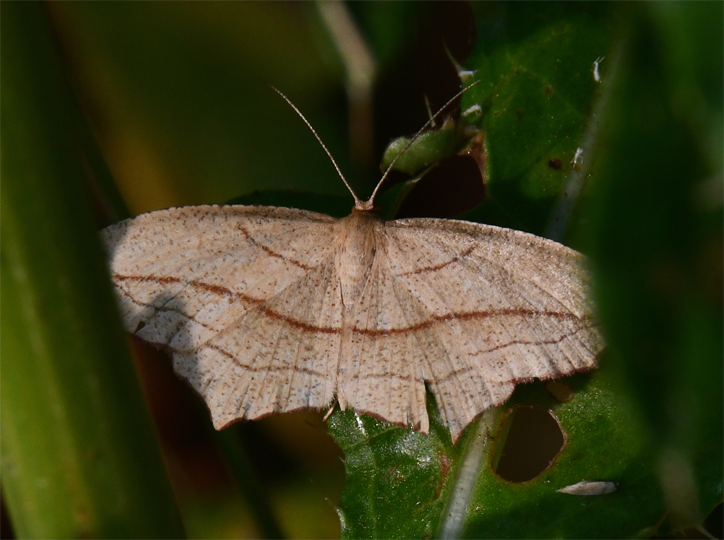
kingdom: Animalia
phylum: Arthropoda
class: Insecta
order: Lepidoptera
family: Geometridae
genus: Timandra
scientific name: Timandra amaturaria
